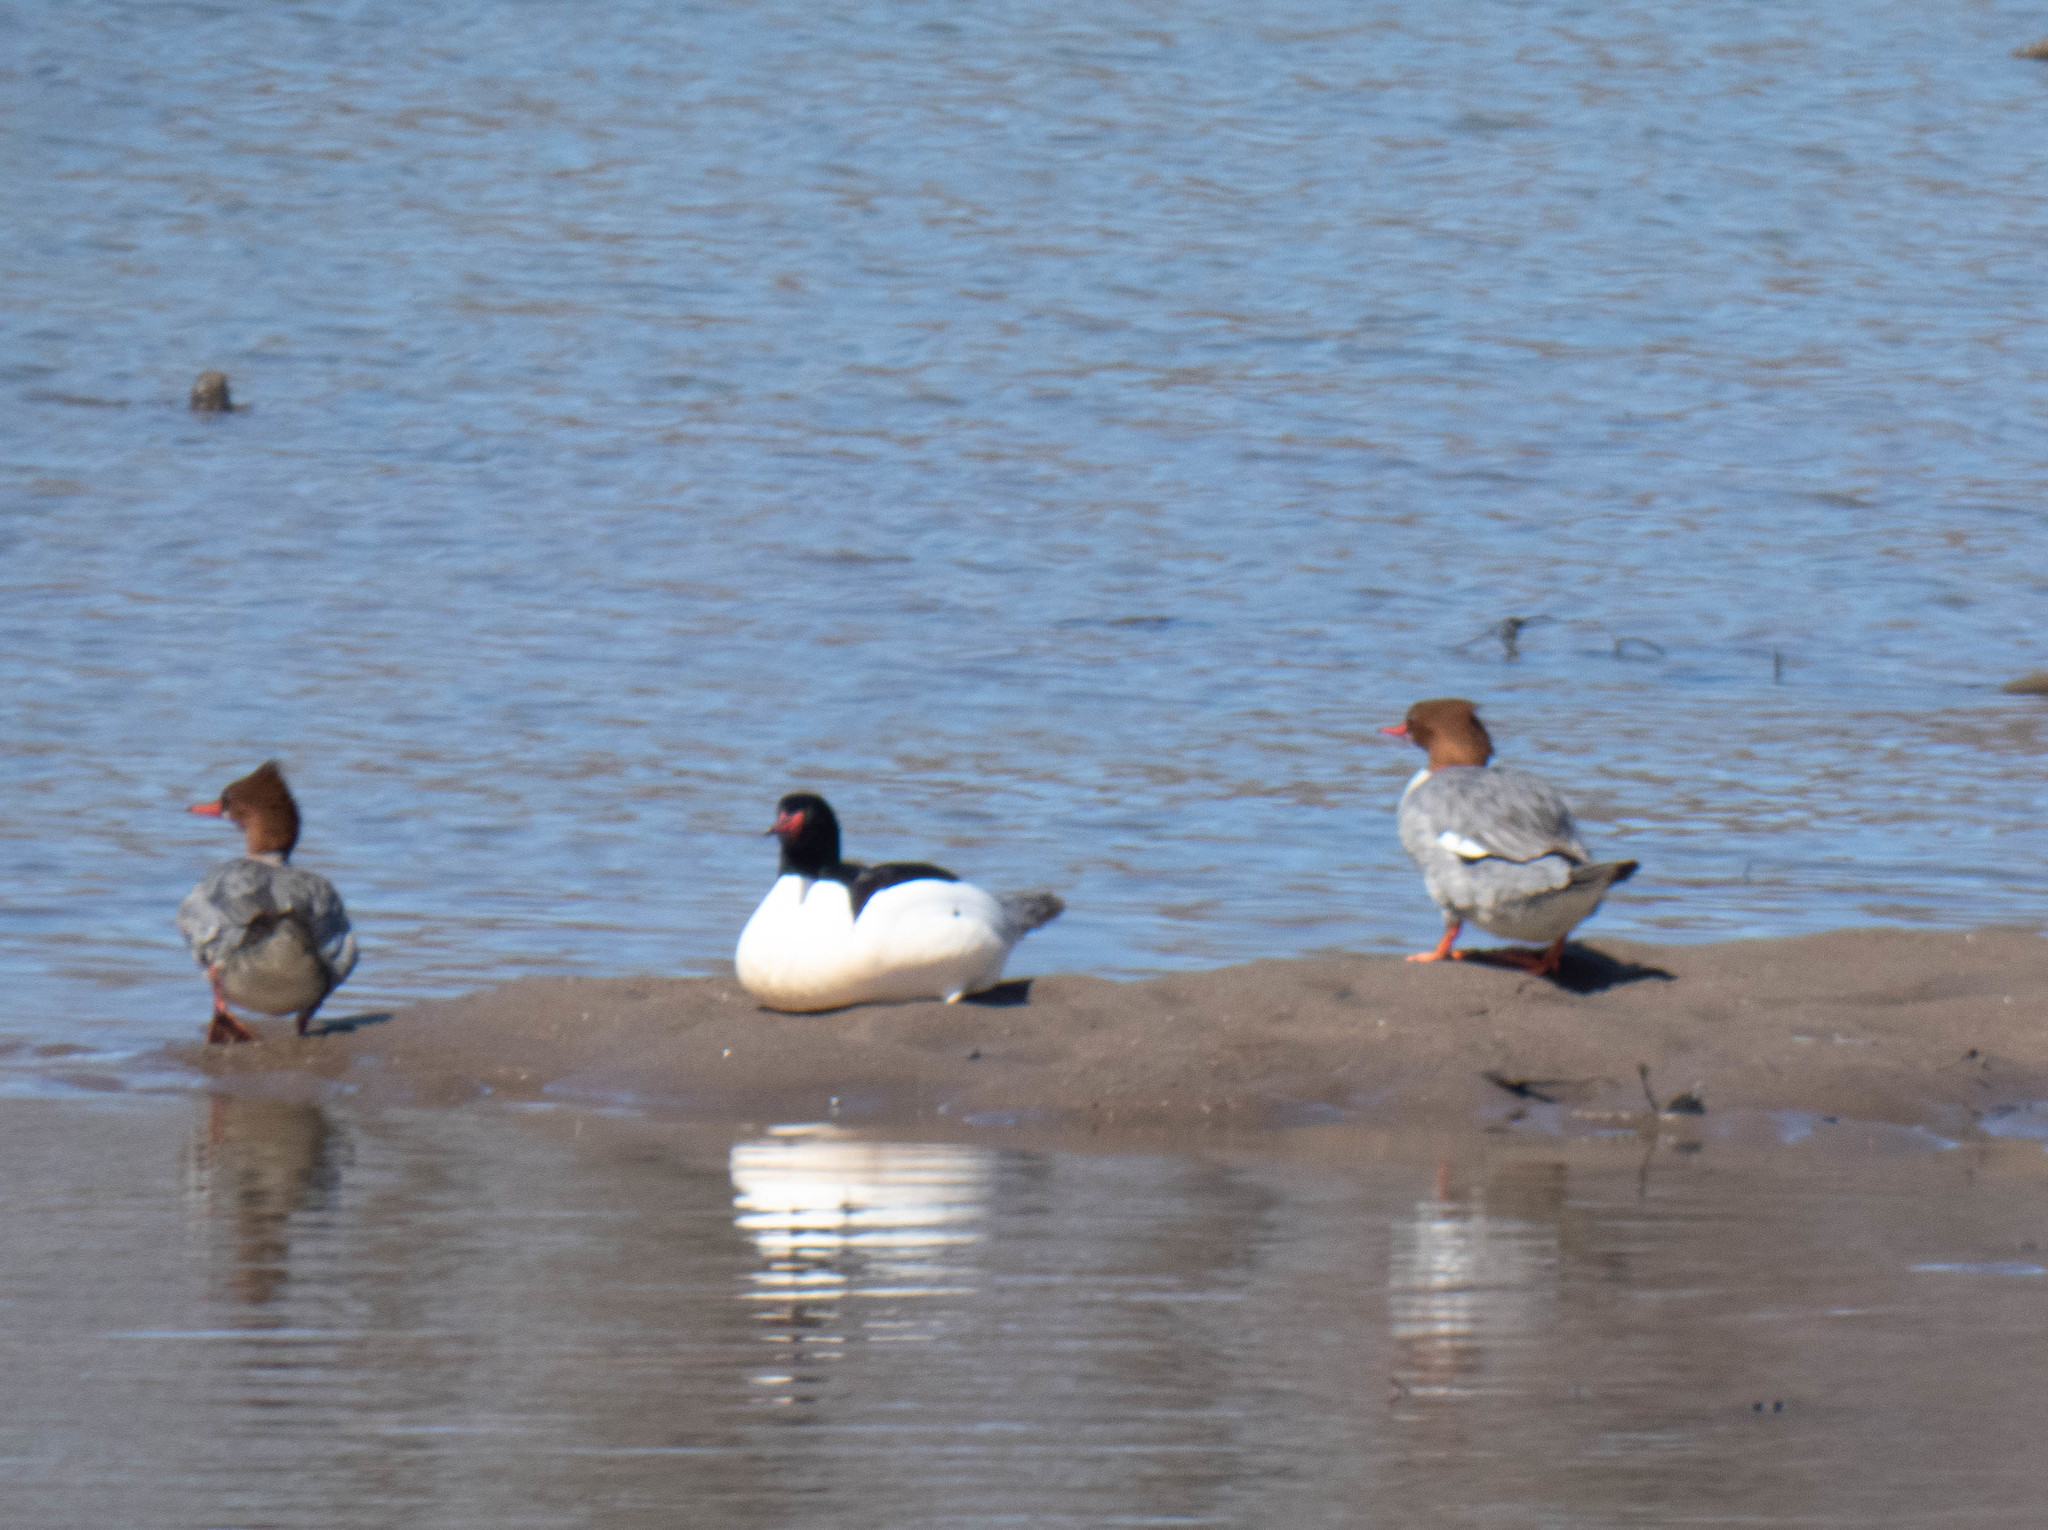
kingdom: Animalia
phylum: Chordata
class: Aves
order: Anseriformes
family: Anatidae
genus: Mergus
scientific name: Mergus merganser
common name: Common merganser
